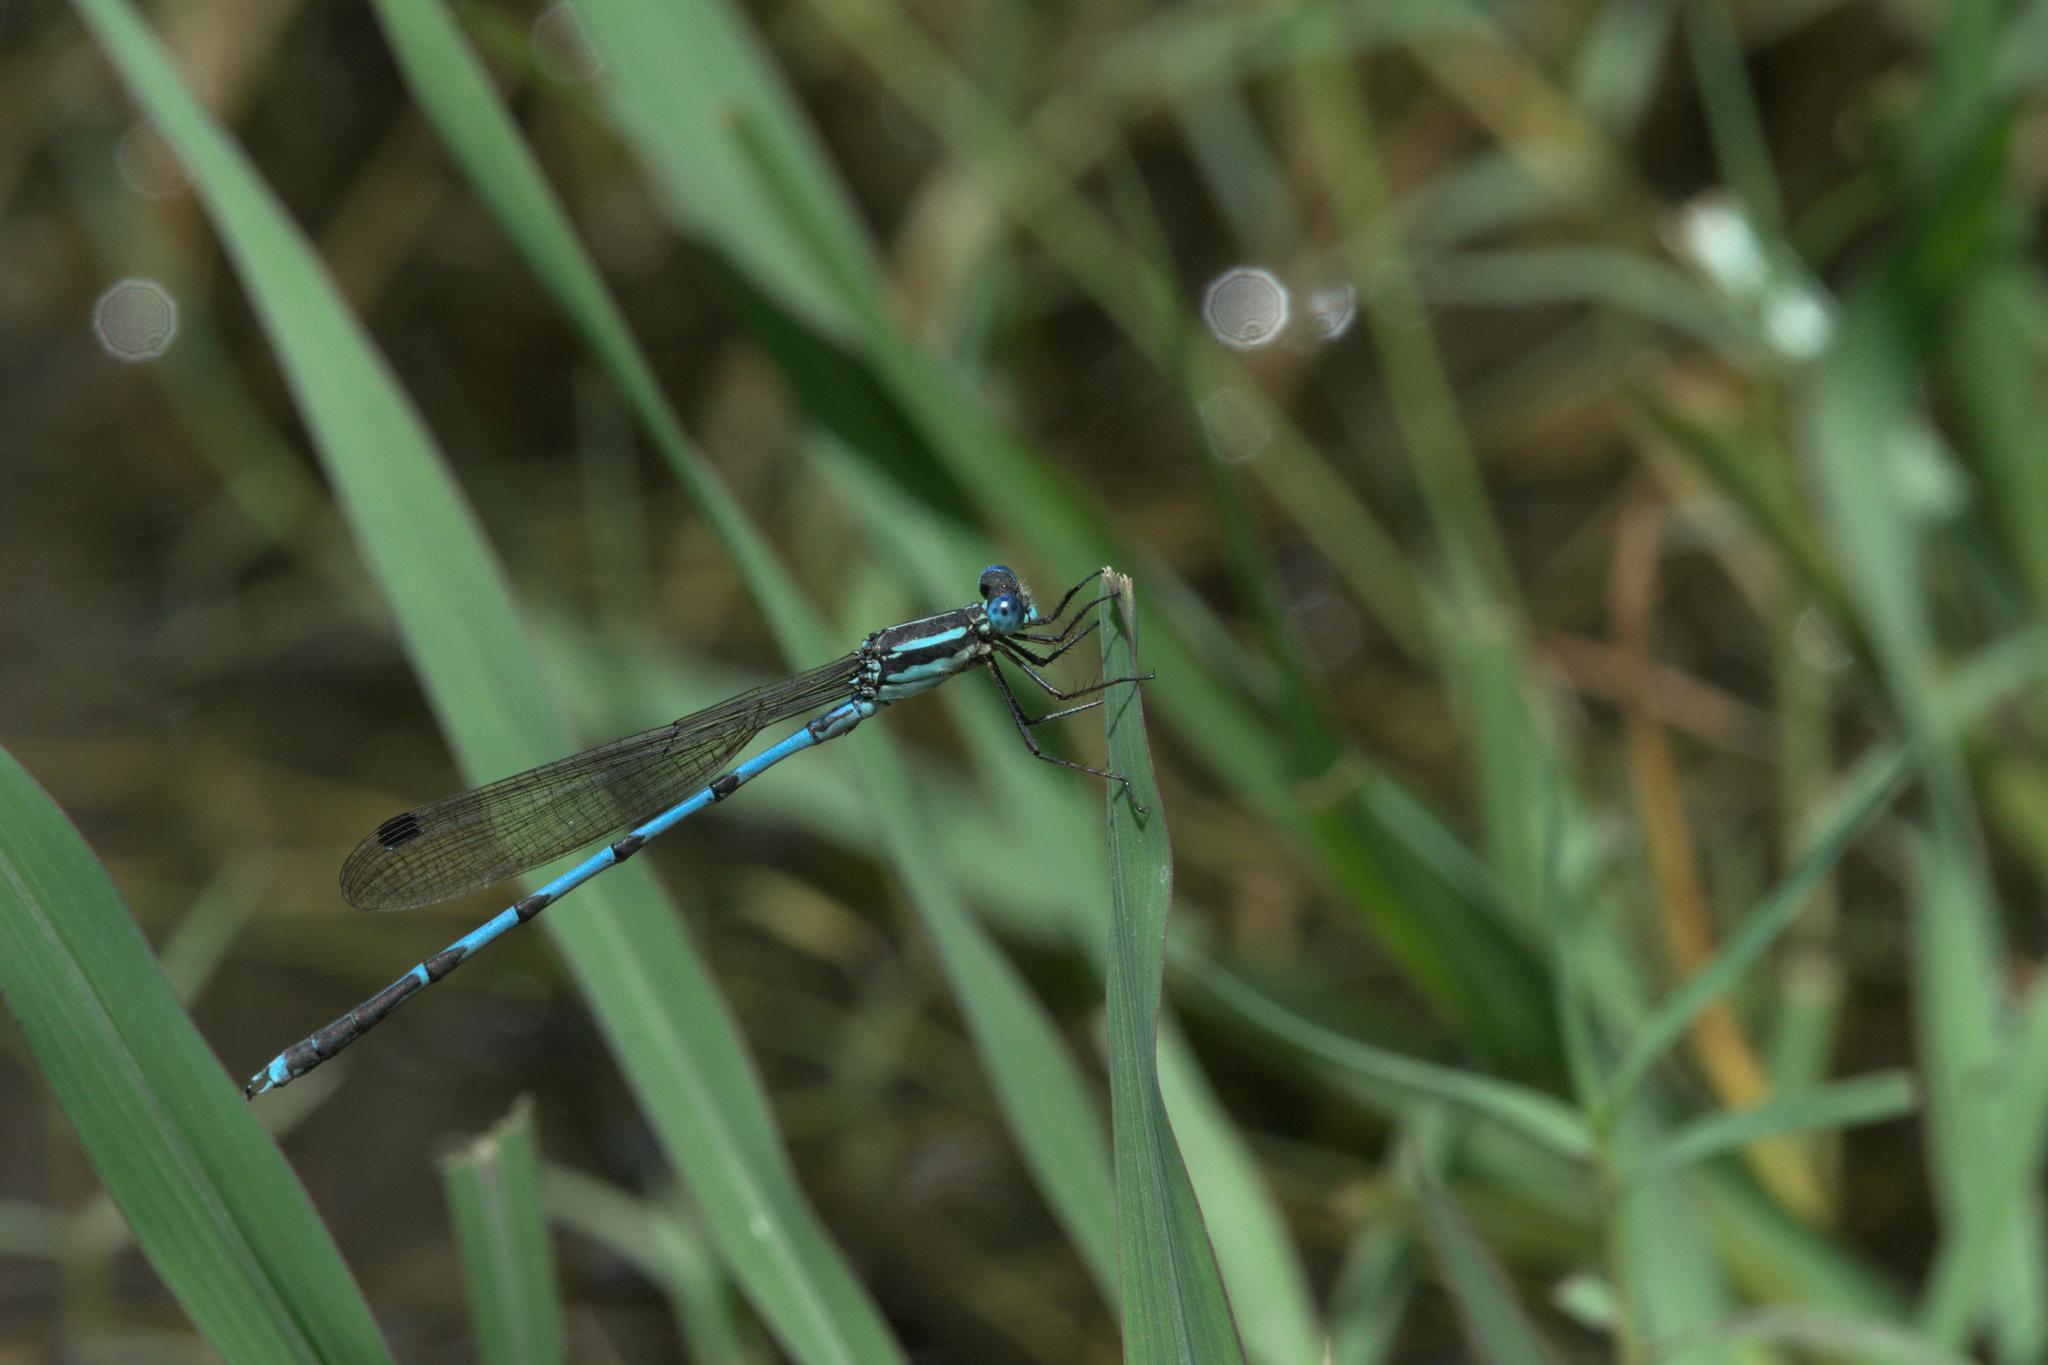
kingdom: Animalia
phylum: Arthropoda
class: Insecta
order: Odonata
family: Lestidae
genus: Indolestes
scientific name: Indolestes cyaneus
